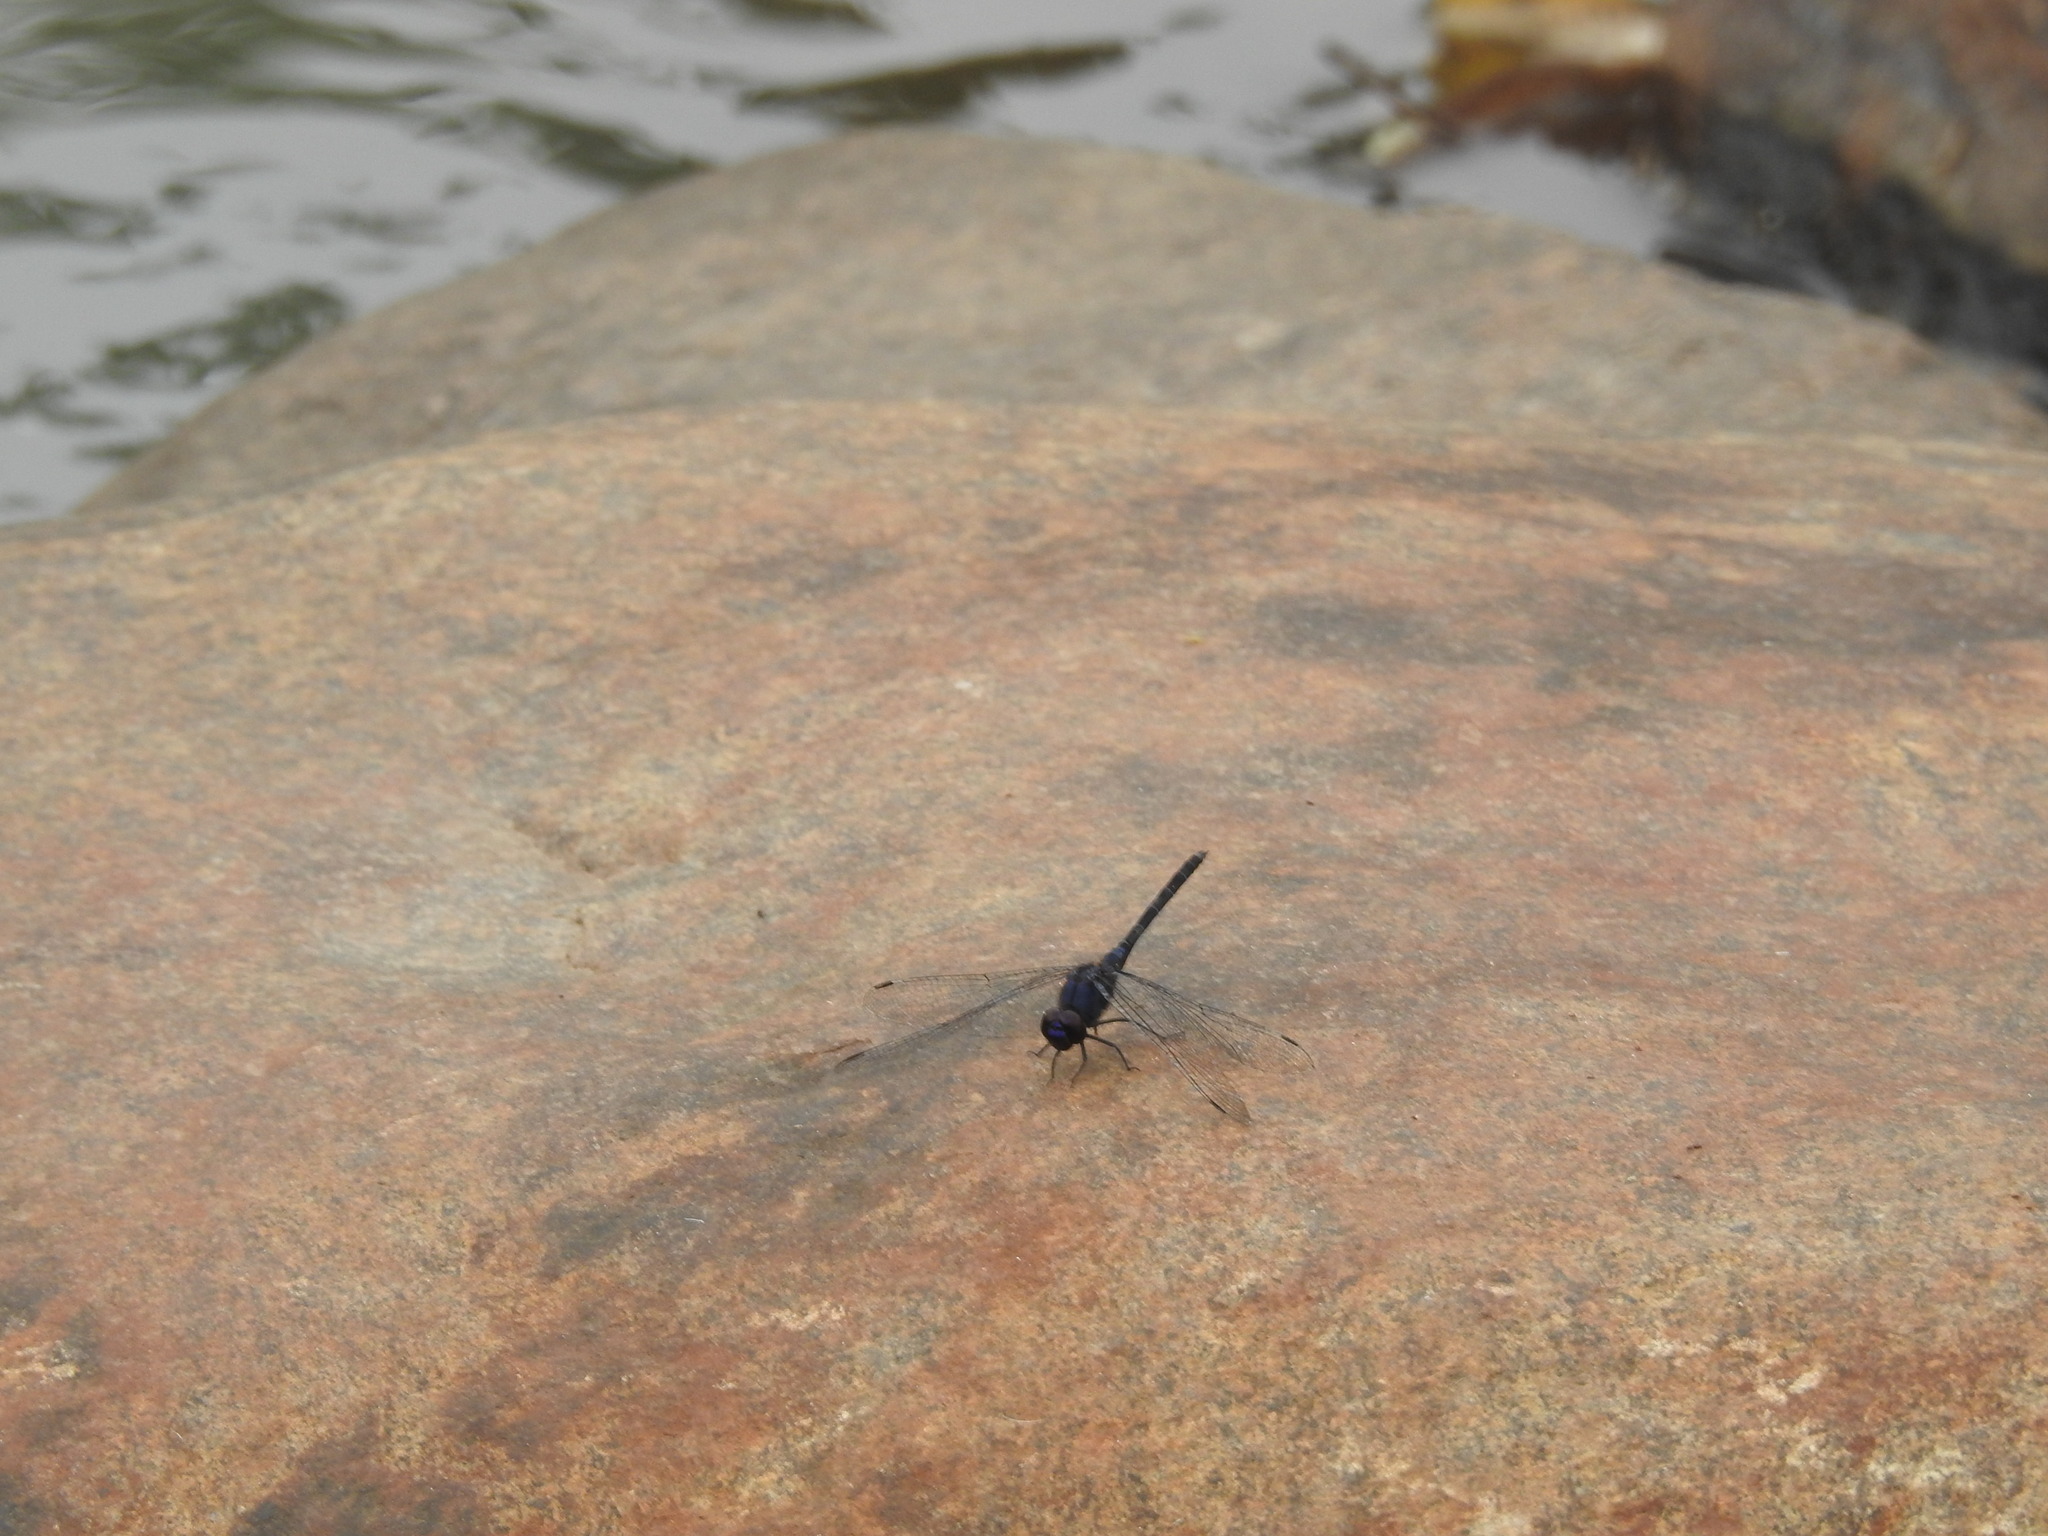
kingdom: Animalia
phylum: Arthropoda
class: Insecta
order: Odonata
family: Libellulidae
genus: Trithemis
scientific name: Trithemis festiva
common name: Indigo dropwing
